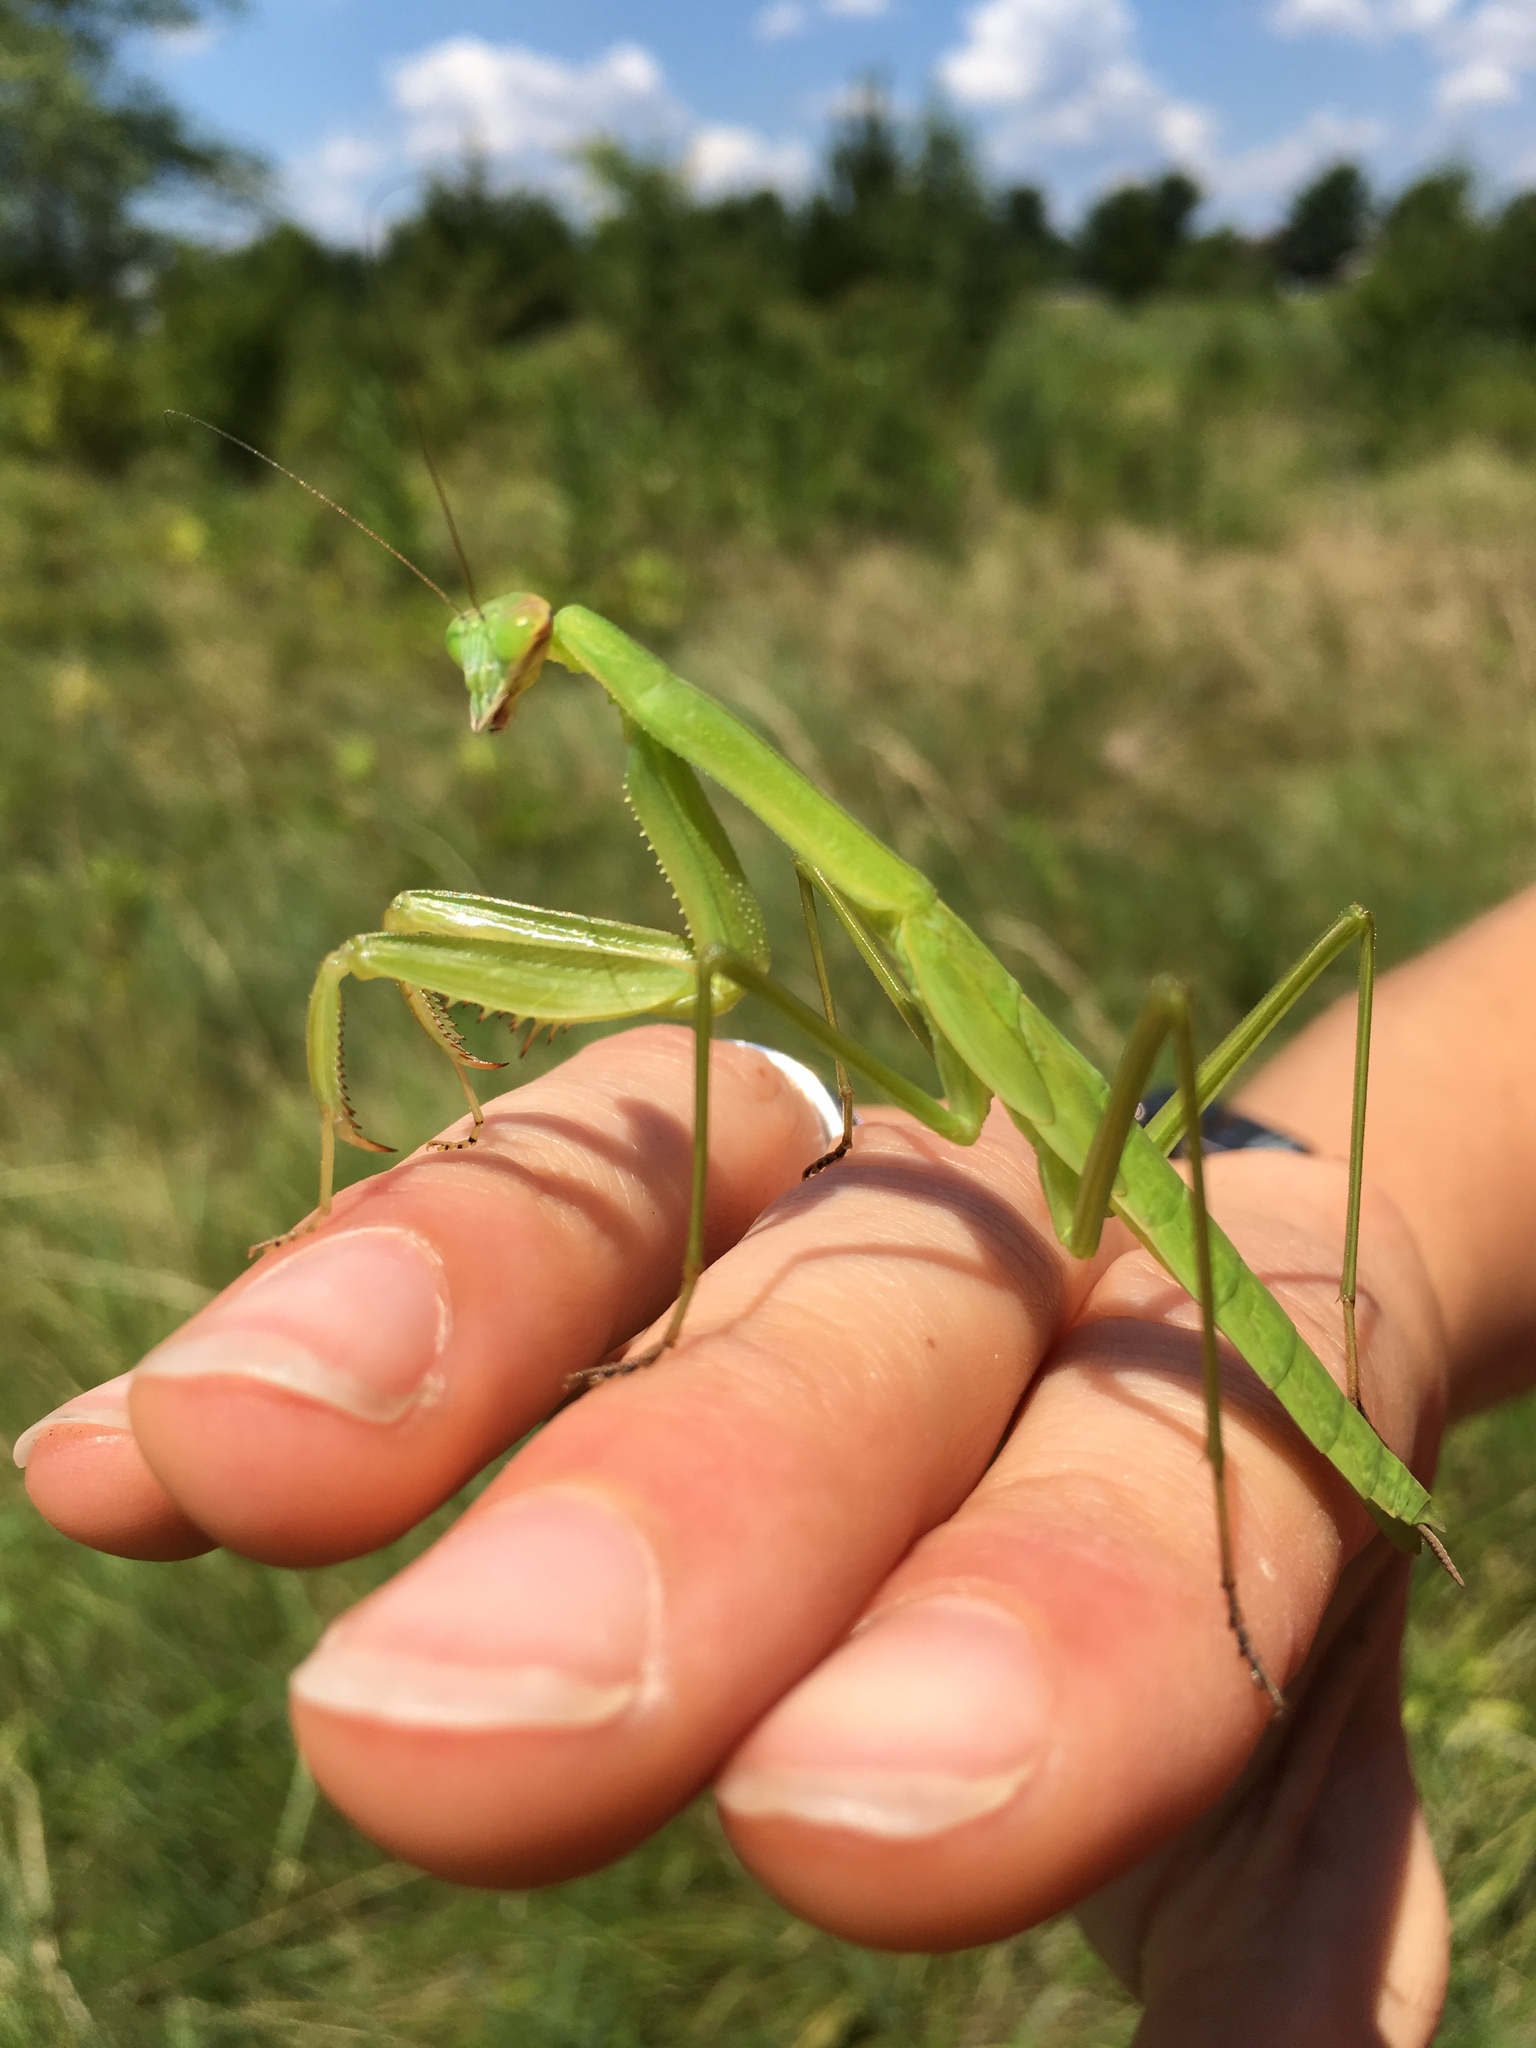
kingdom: Animalia
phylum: Arthropoda
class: Insecta
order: Mantodea
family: Mantidae
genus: Tenodera
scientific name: Tenodera sinensis
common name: Chinese mantis
